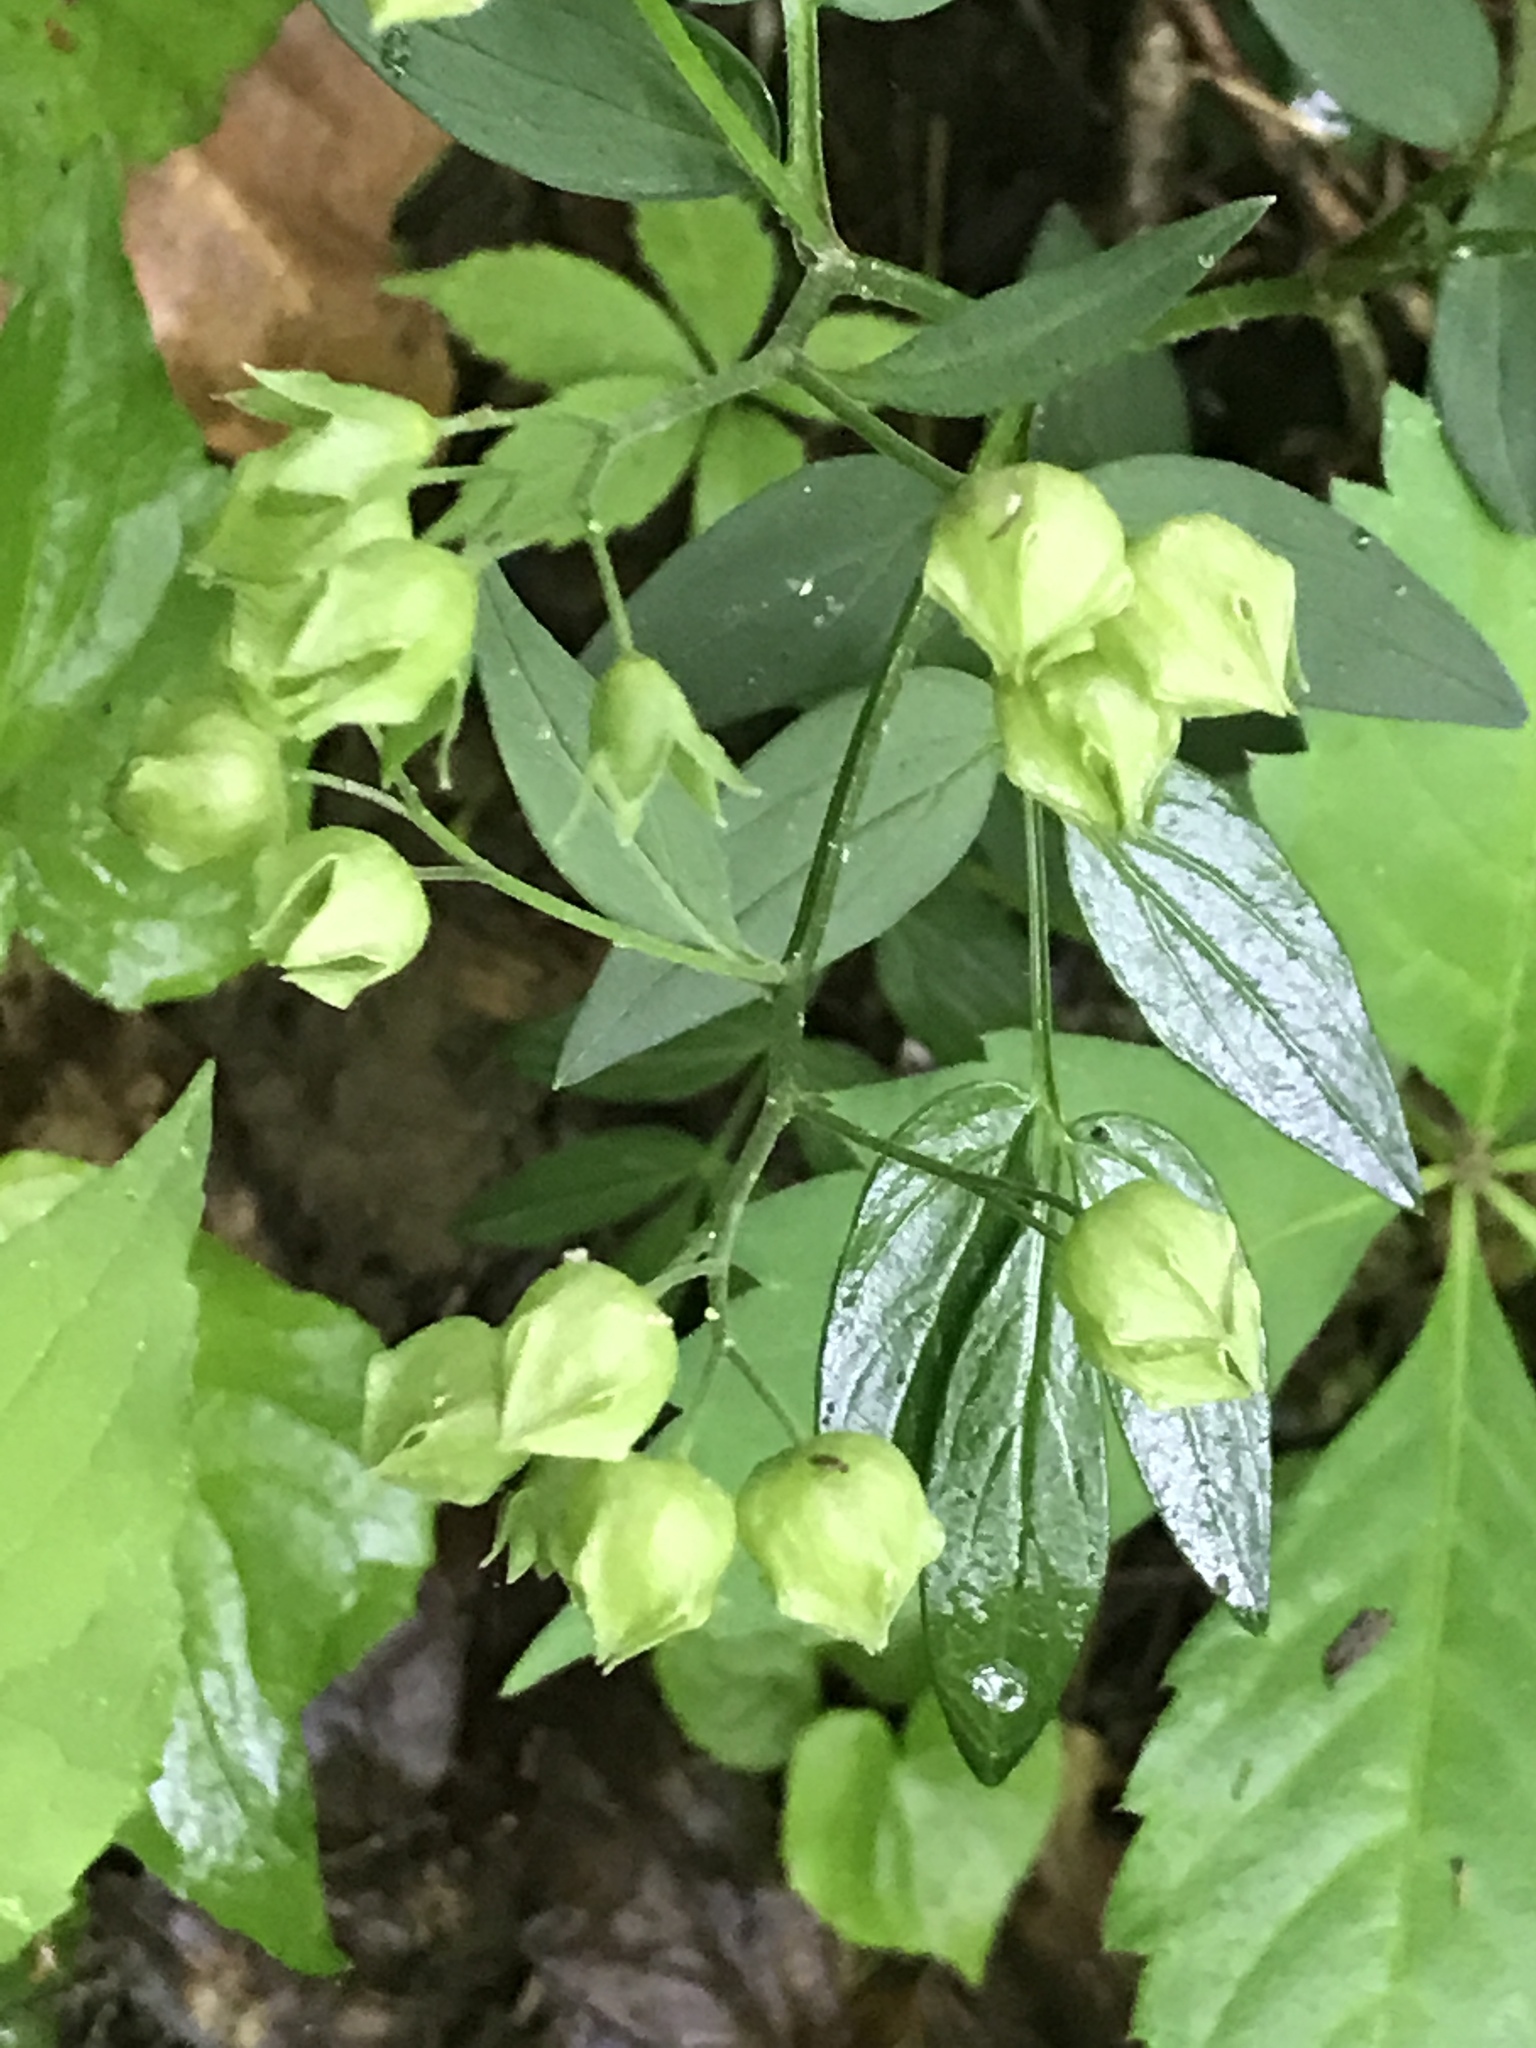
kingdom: Plantae
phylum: Tracheophyta
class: Magnoliopsida
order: Ericales
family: Polemoniaceae
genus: Polemonium
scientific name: Polemonium reptans
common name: Creeping jacob's-ladder
